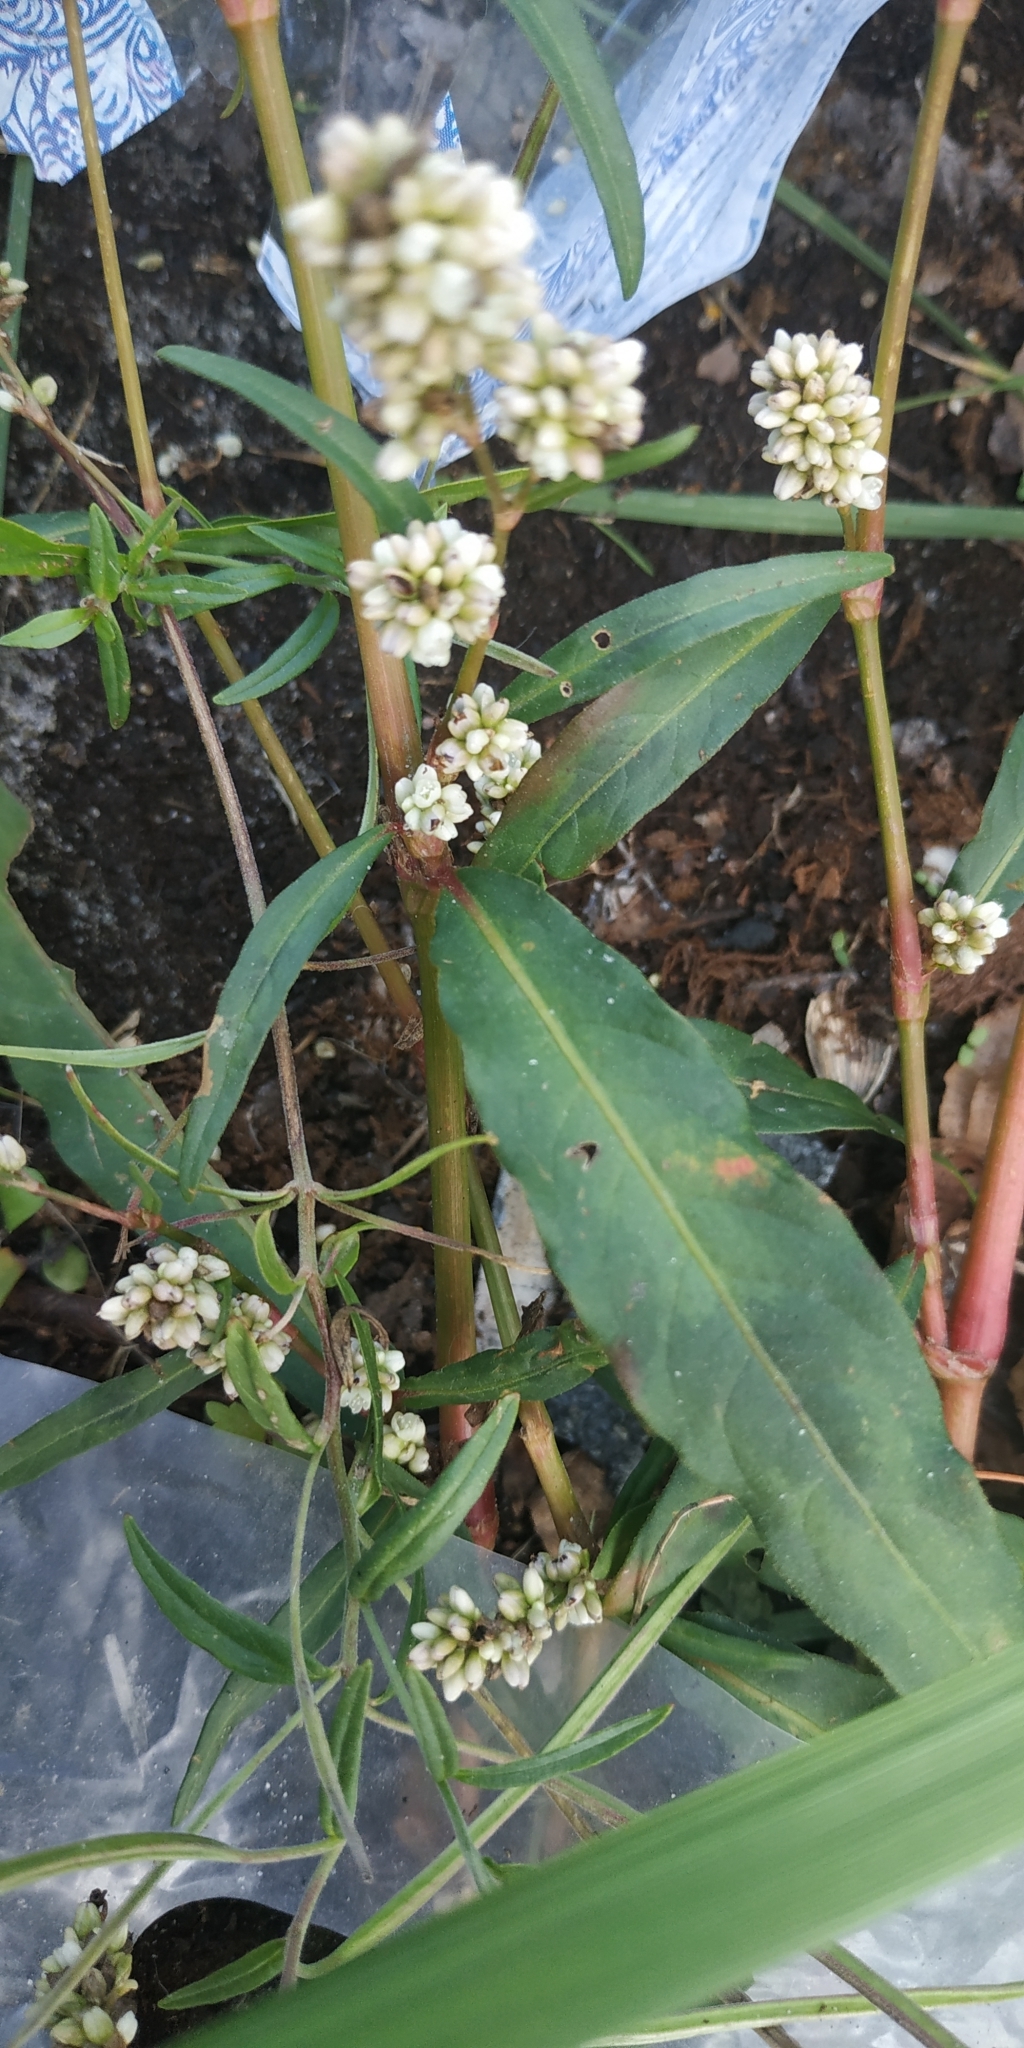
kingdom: Plantae
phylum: Tracheophyta
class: Magnoliopsida
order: Caryophyllales
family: Polygonaceae
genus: Persicaria
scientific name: Persicaria maculosa
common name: Redshank
